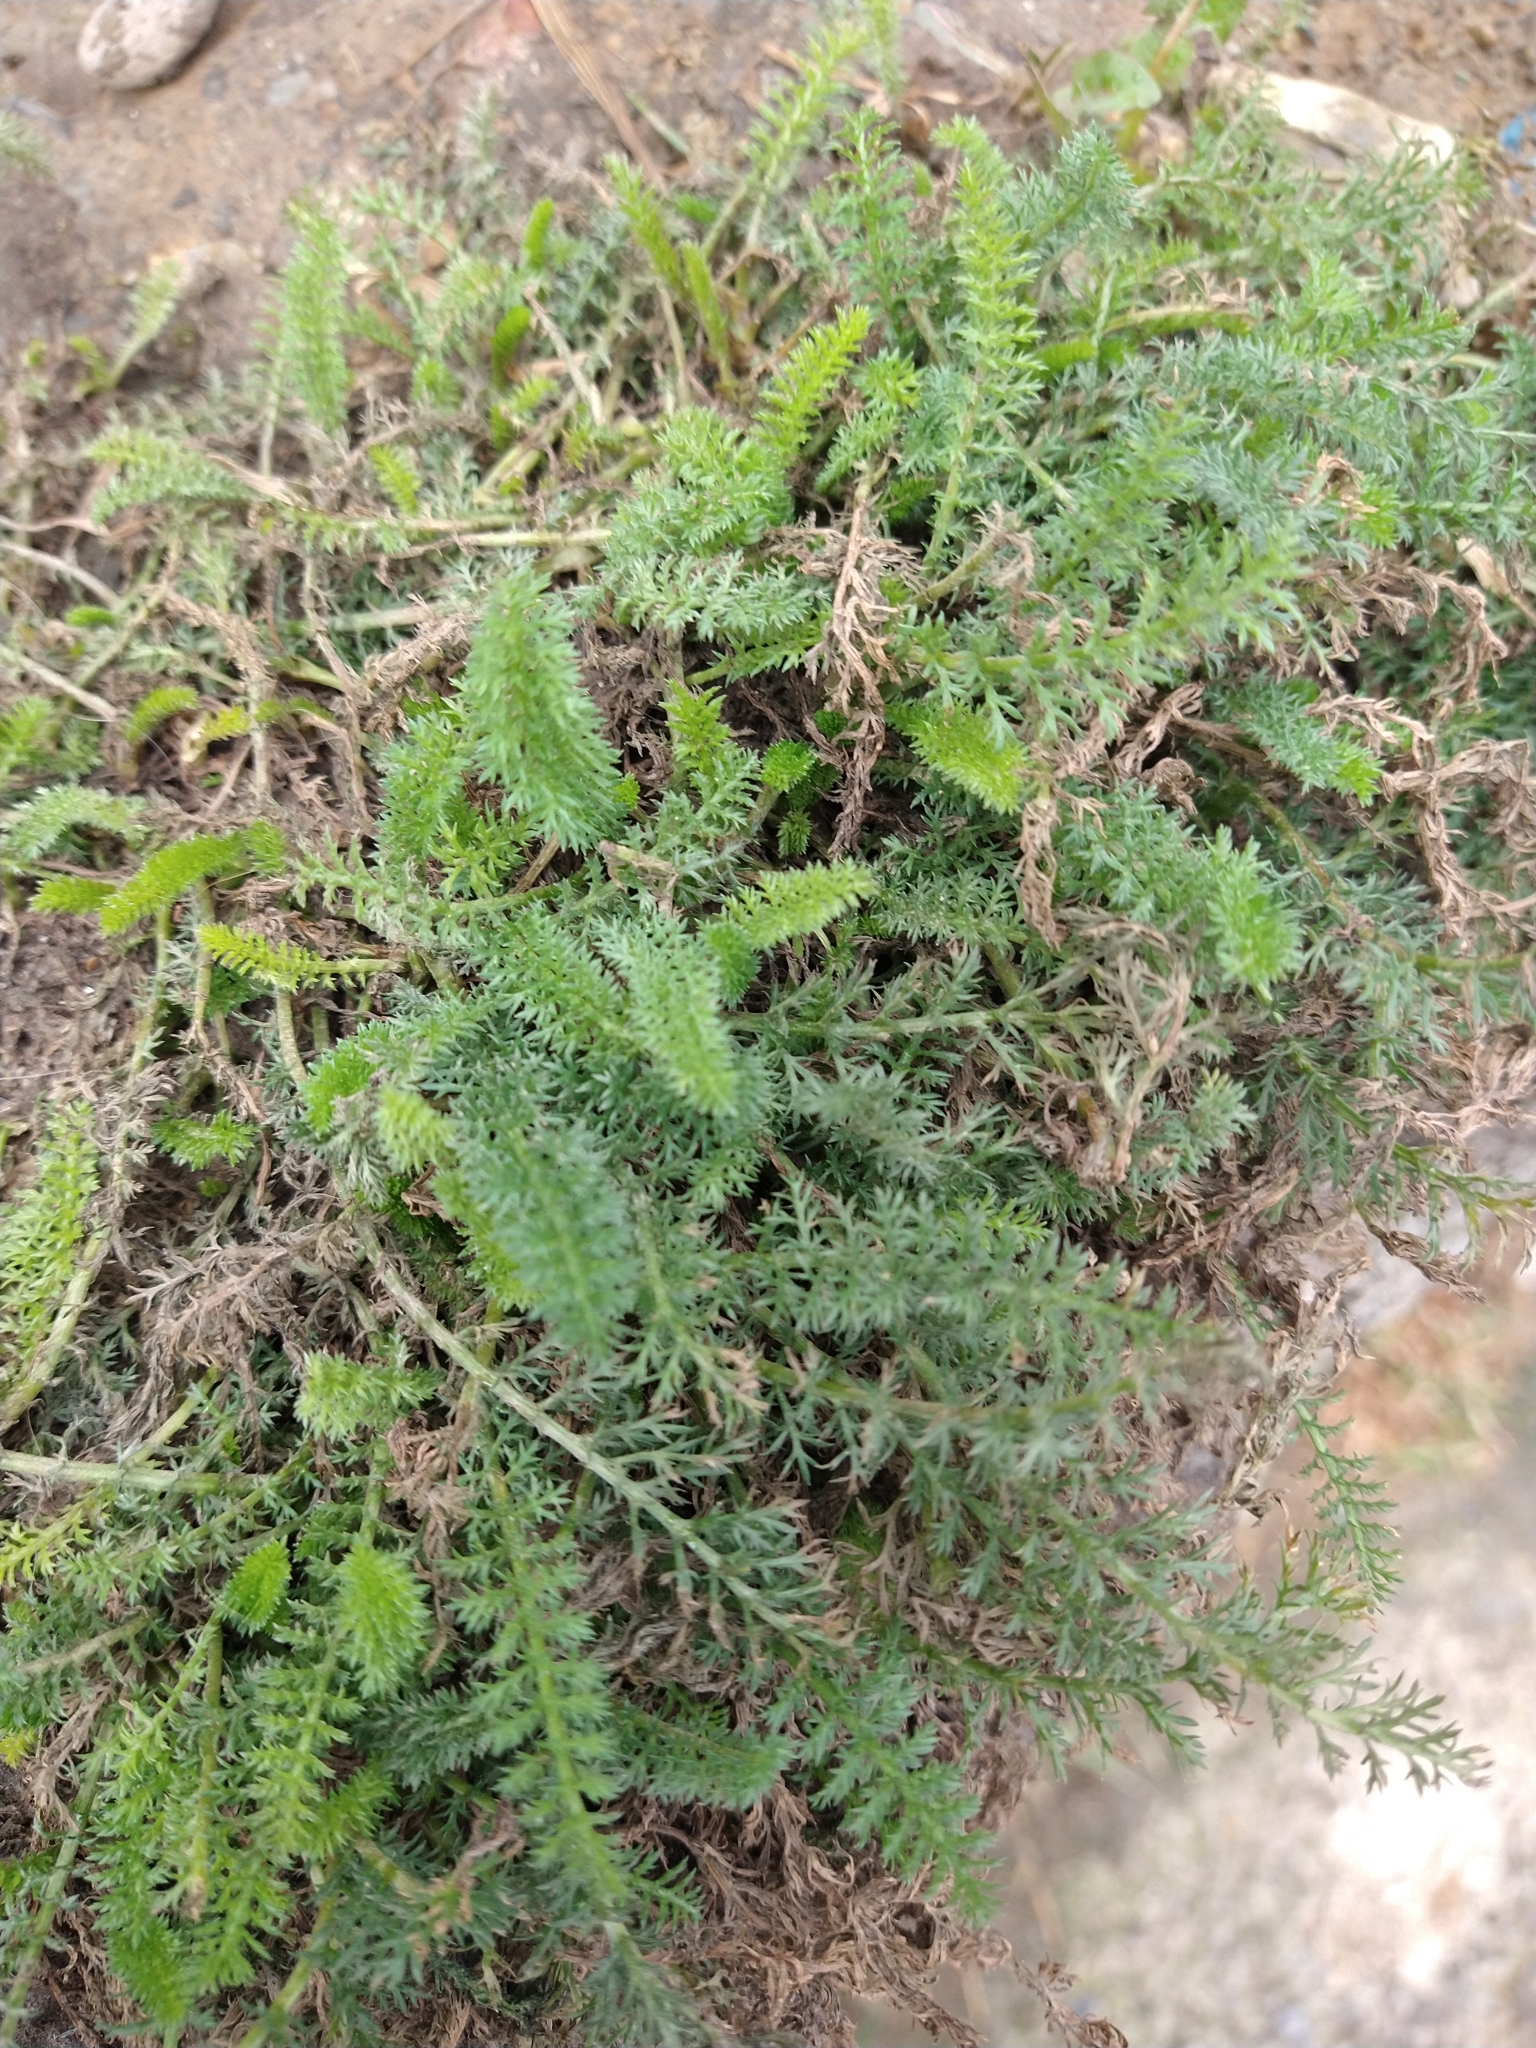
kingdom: Plantae
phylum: Tracheophyta
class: Magnoliopsida
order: Asterales
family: Asteraceae
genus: Achillea
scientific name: Achillea millefolium
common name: Yarrow
